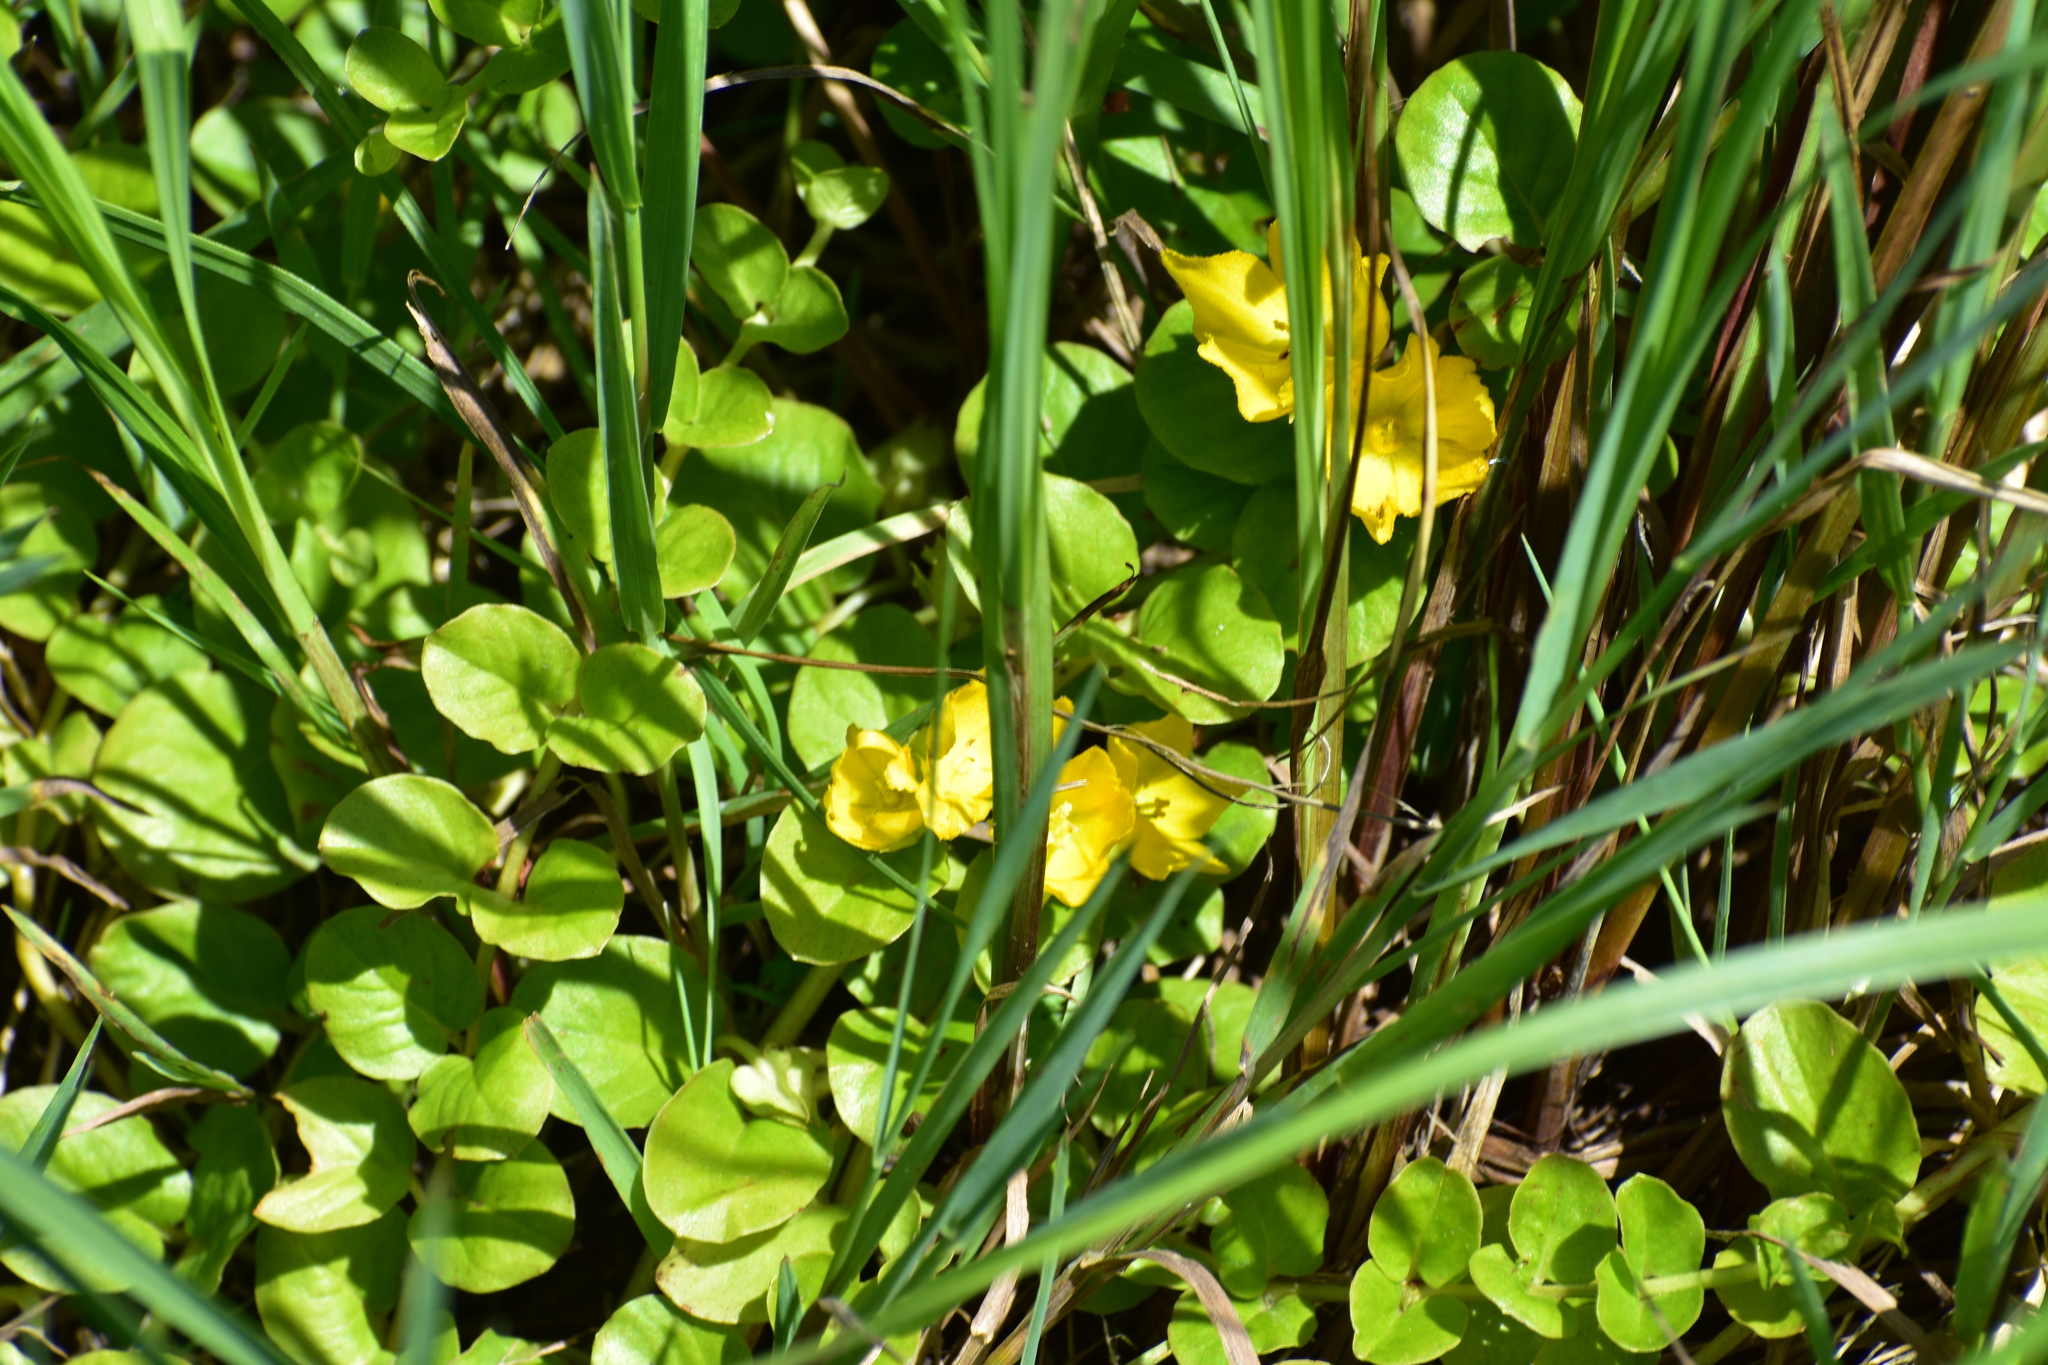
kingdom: Plantae
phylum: Tracheophyta
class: Magnoliopsida
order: Ericales
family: Primulaceae
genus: Lysimachia
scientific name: Lysimachia nummularia
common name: Moneywort
